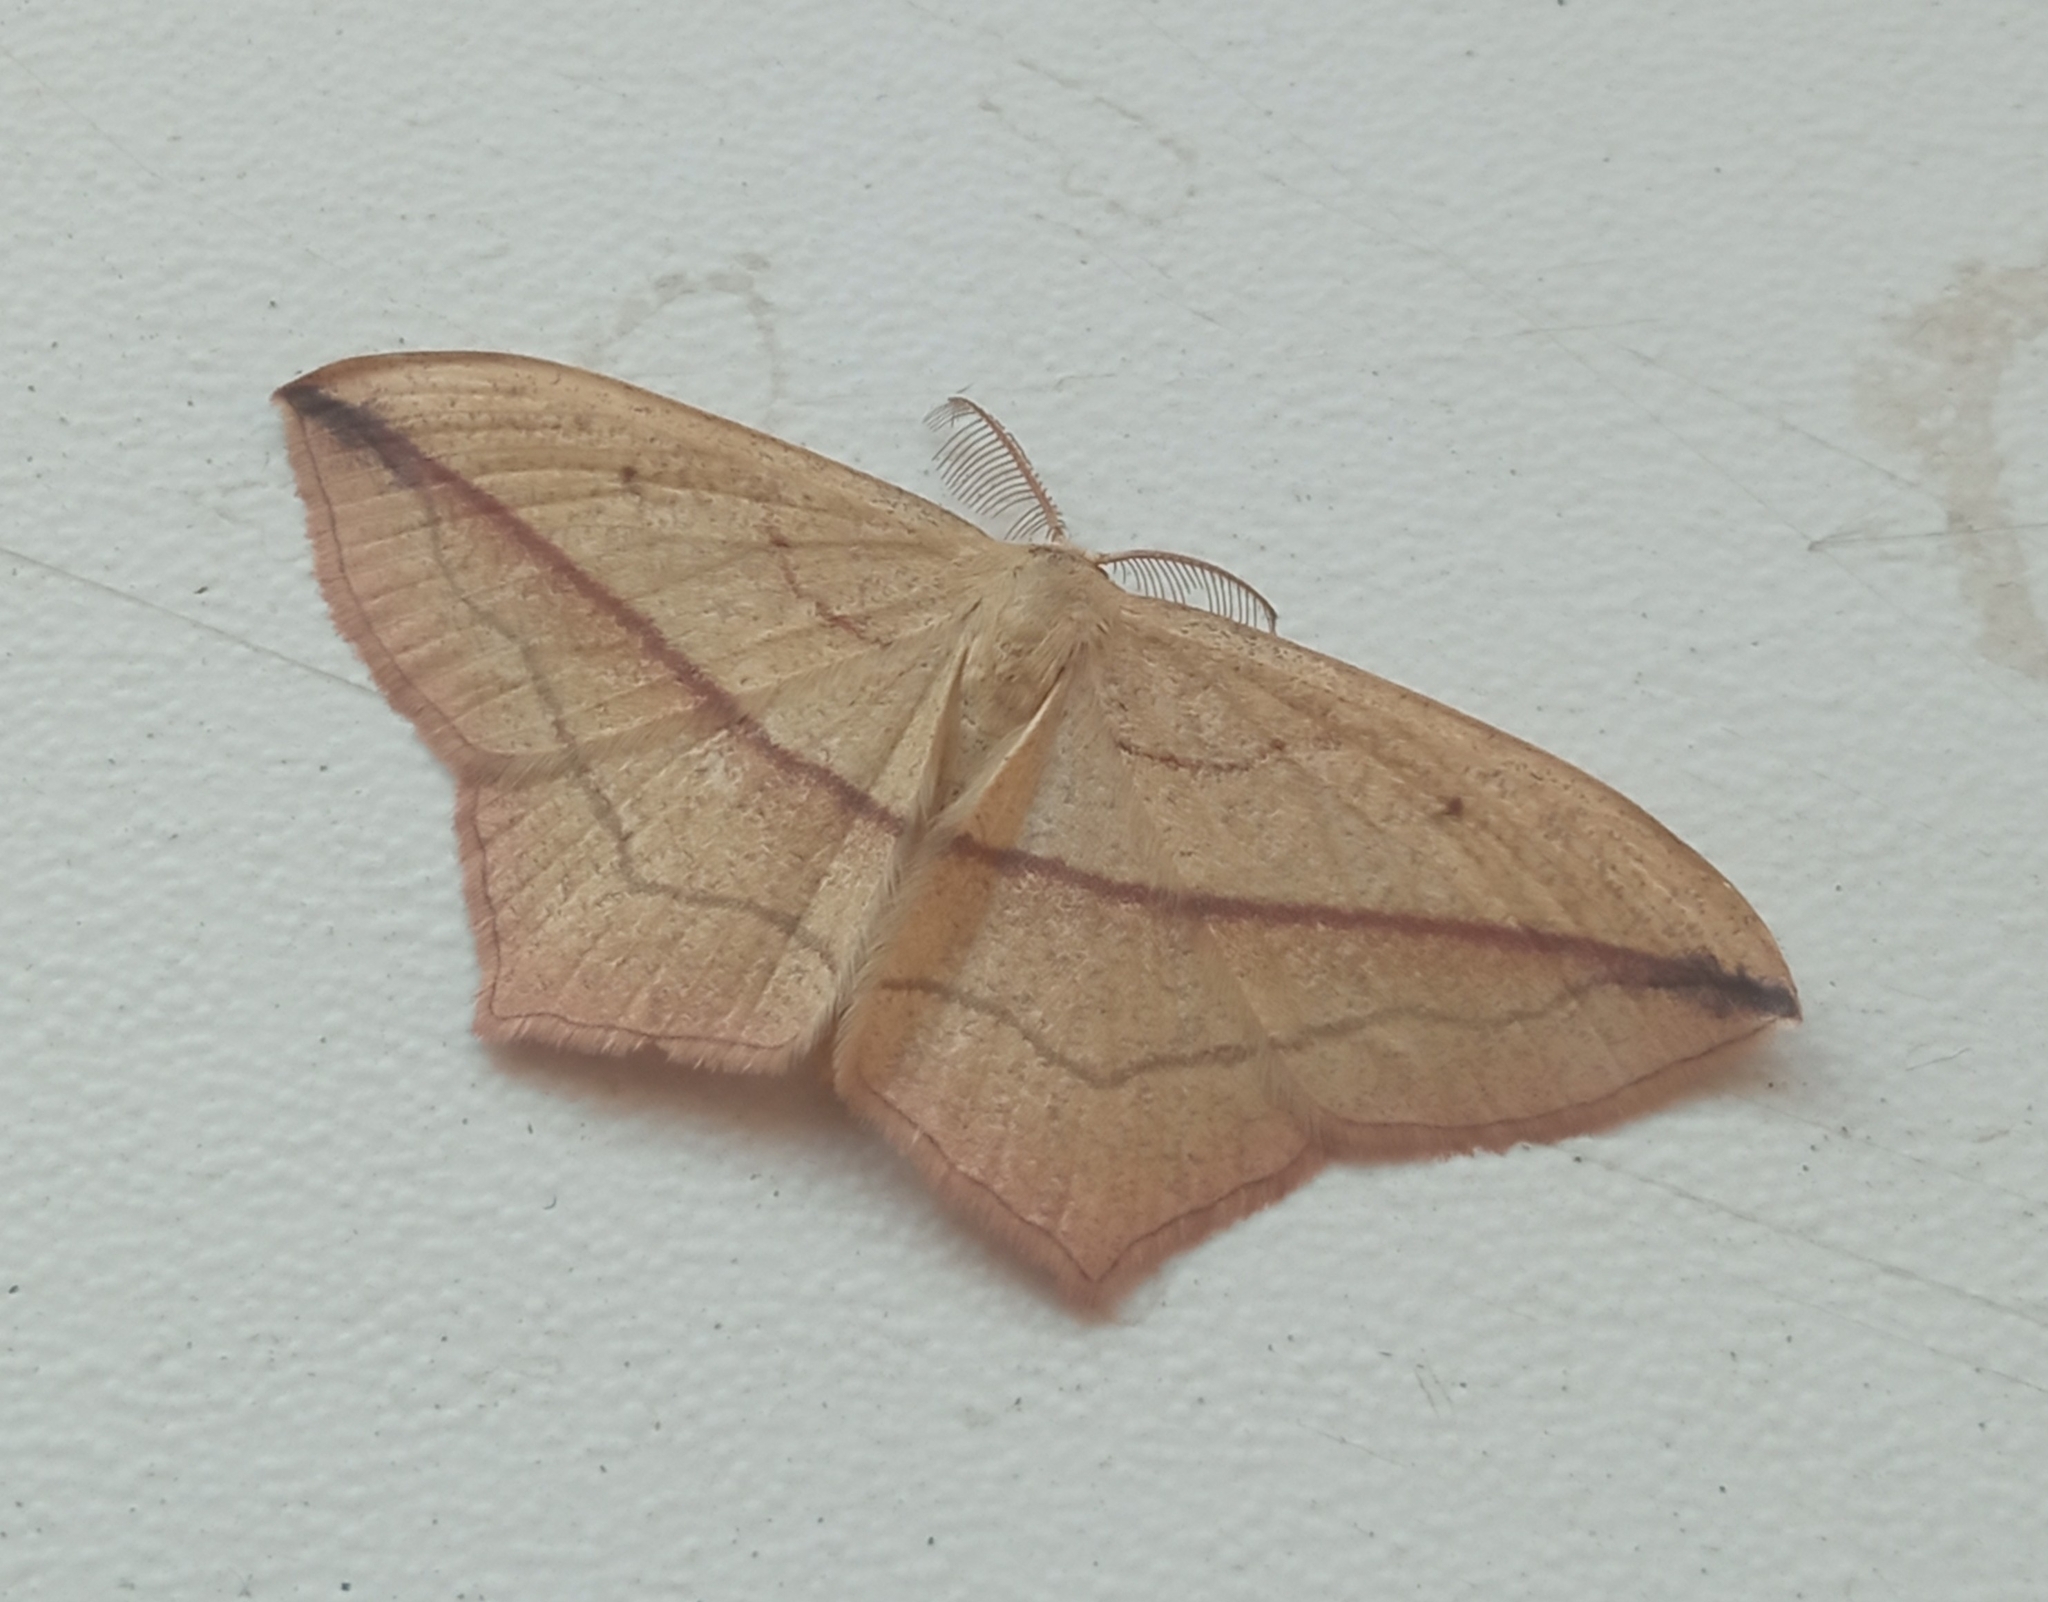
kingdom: Animalia
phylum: Arthropoda
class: Insecta
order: Lepidoptera
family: Geometridae
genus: Timandra
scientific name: Timandra comae
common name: Blood-vein
